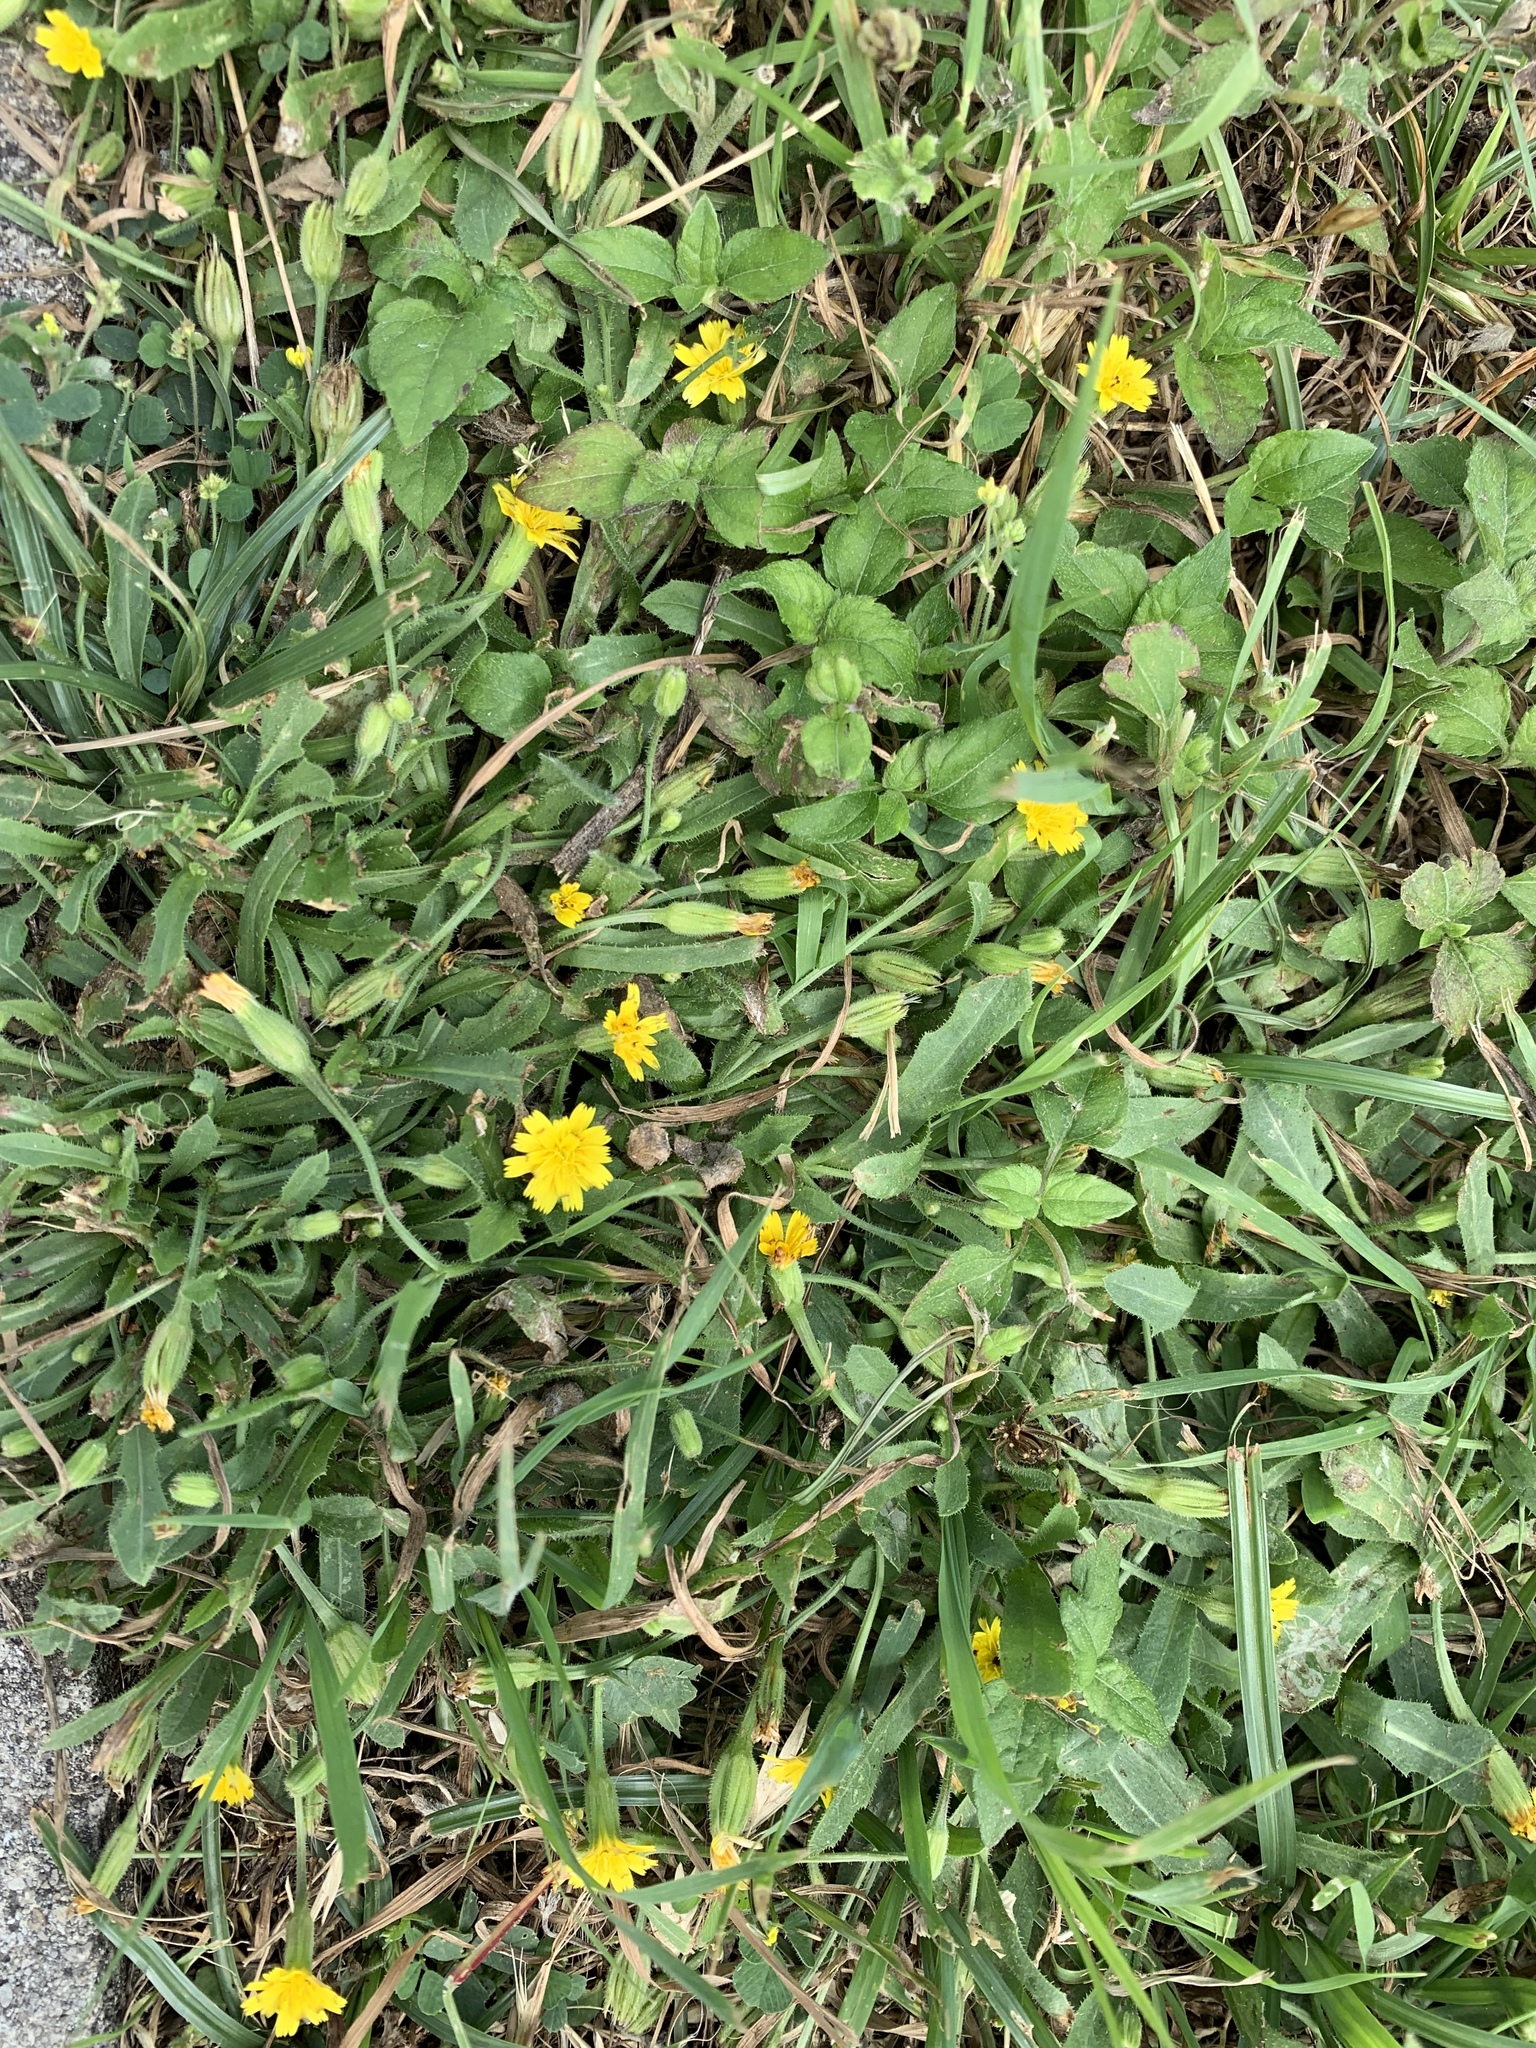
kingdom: Plantae
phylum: Tracheophyta
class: Magnoliopsida
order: Asterales
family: Asteraceae
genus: Hedypnois
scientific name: Hedypnois rhagadioloides
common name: Cretan weed
